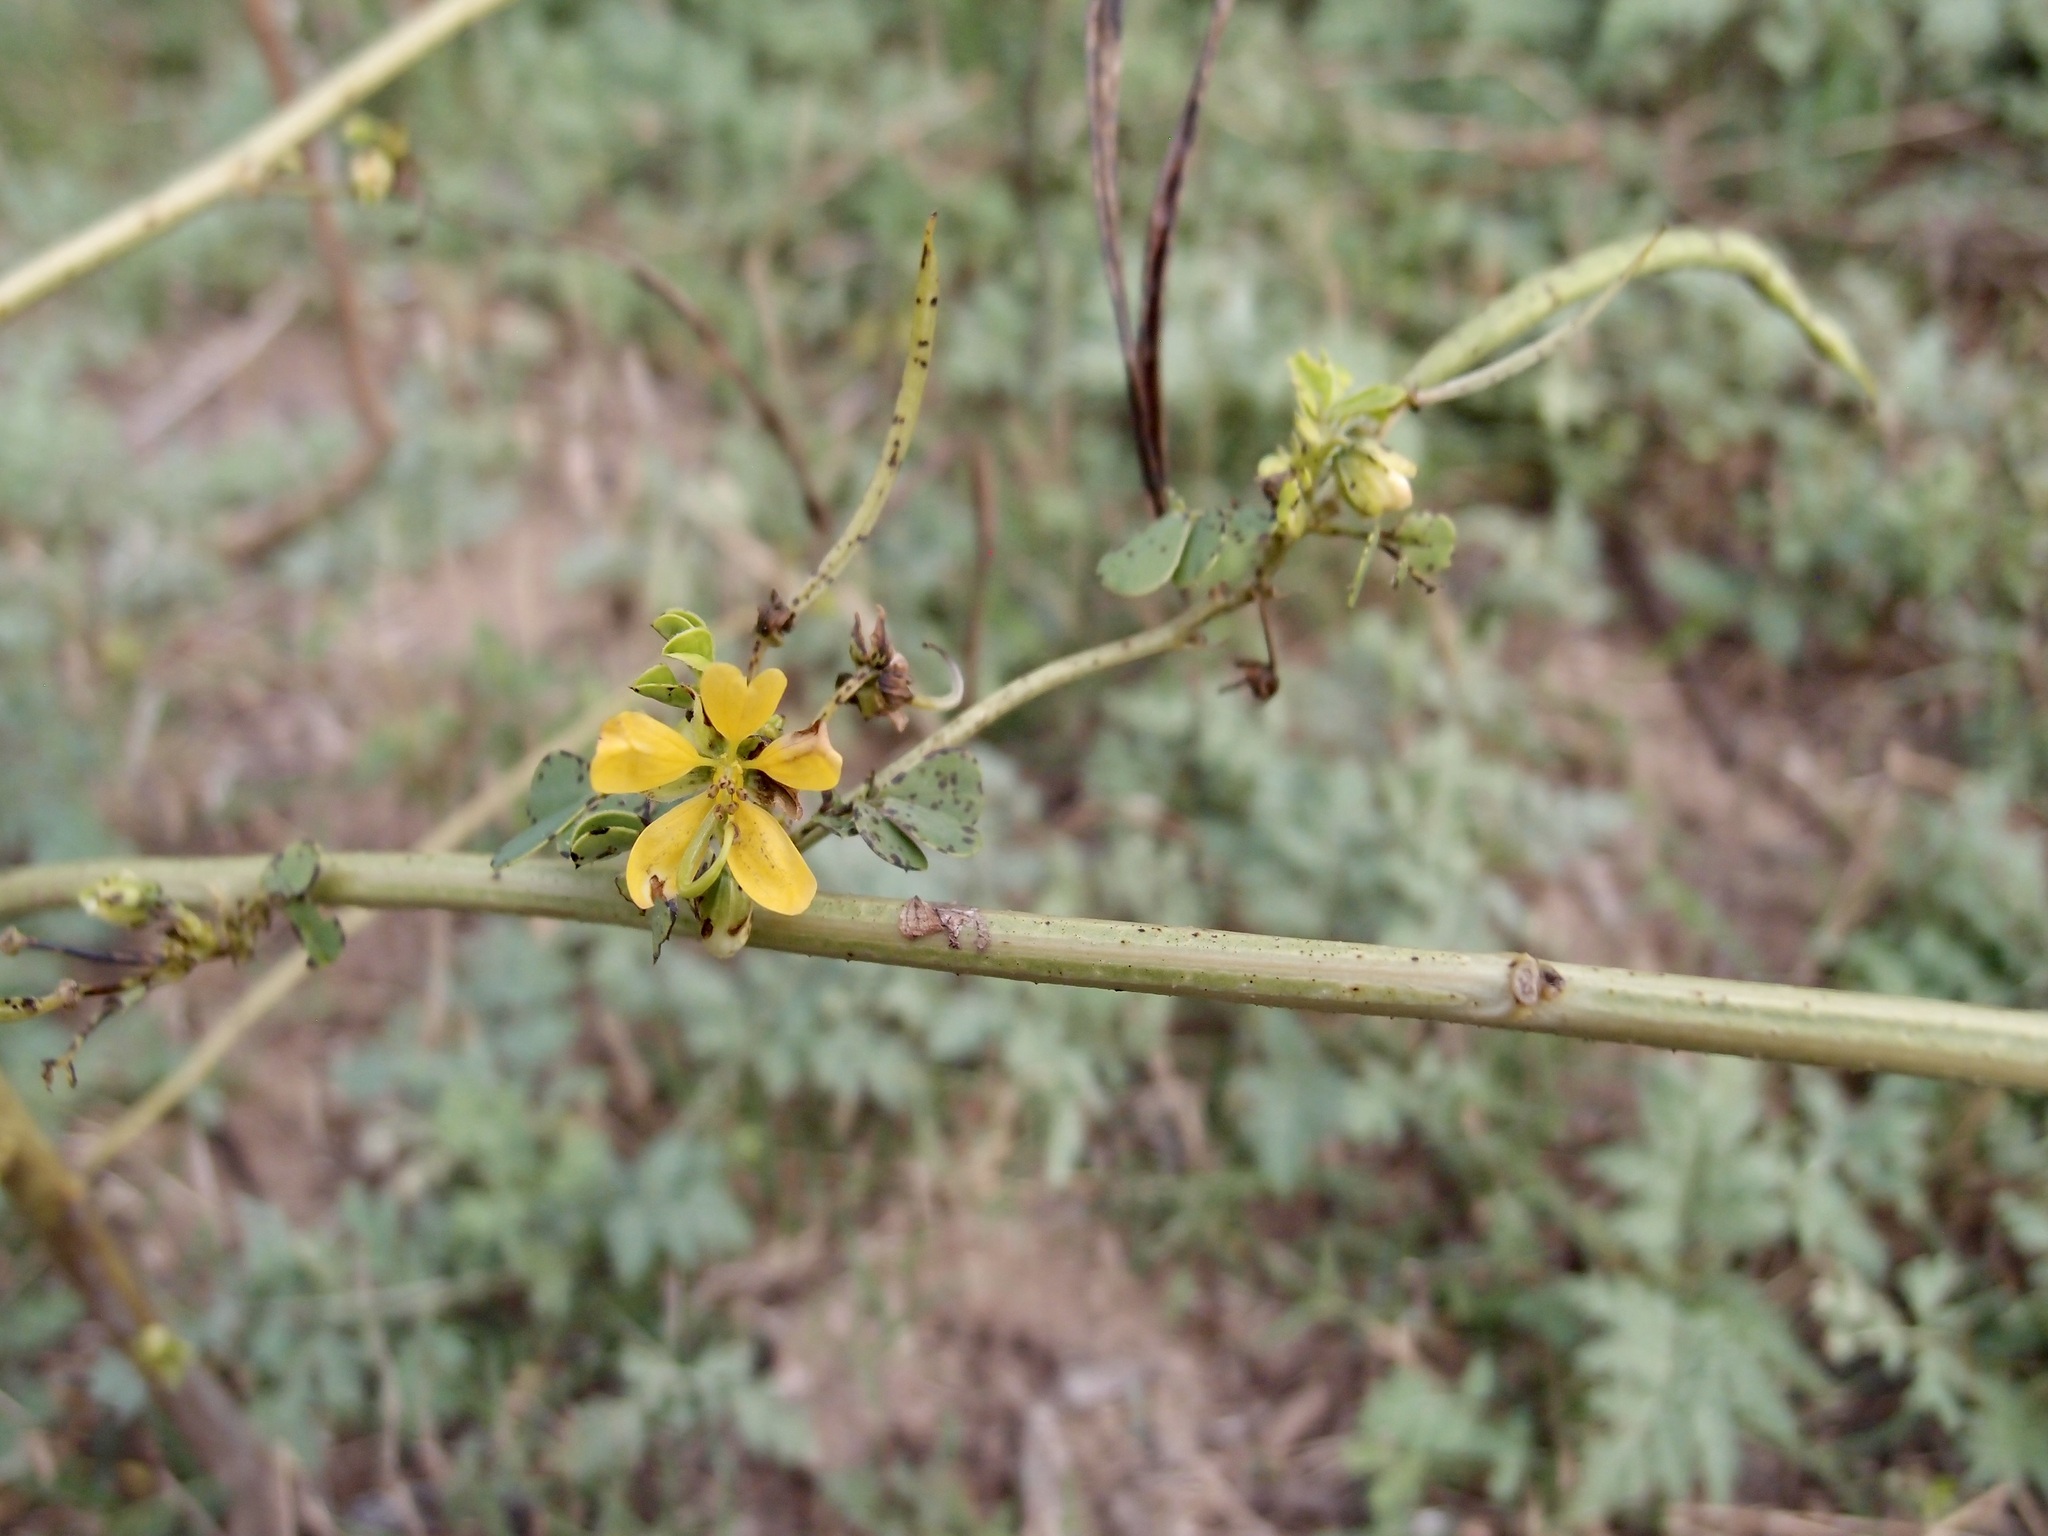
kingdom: Plantae
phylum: Tracheophyta
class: Magnoliopsida
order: Fabales
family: Fabaceae
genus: Senna
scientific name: Senna obtusifolia
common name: Java-bean
